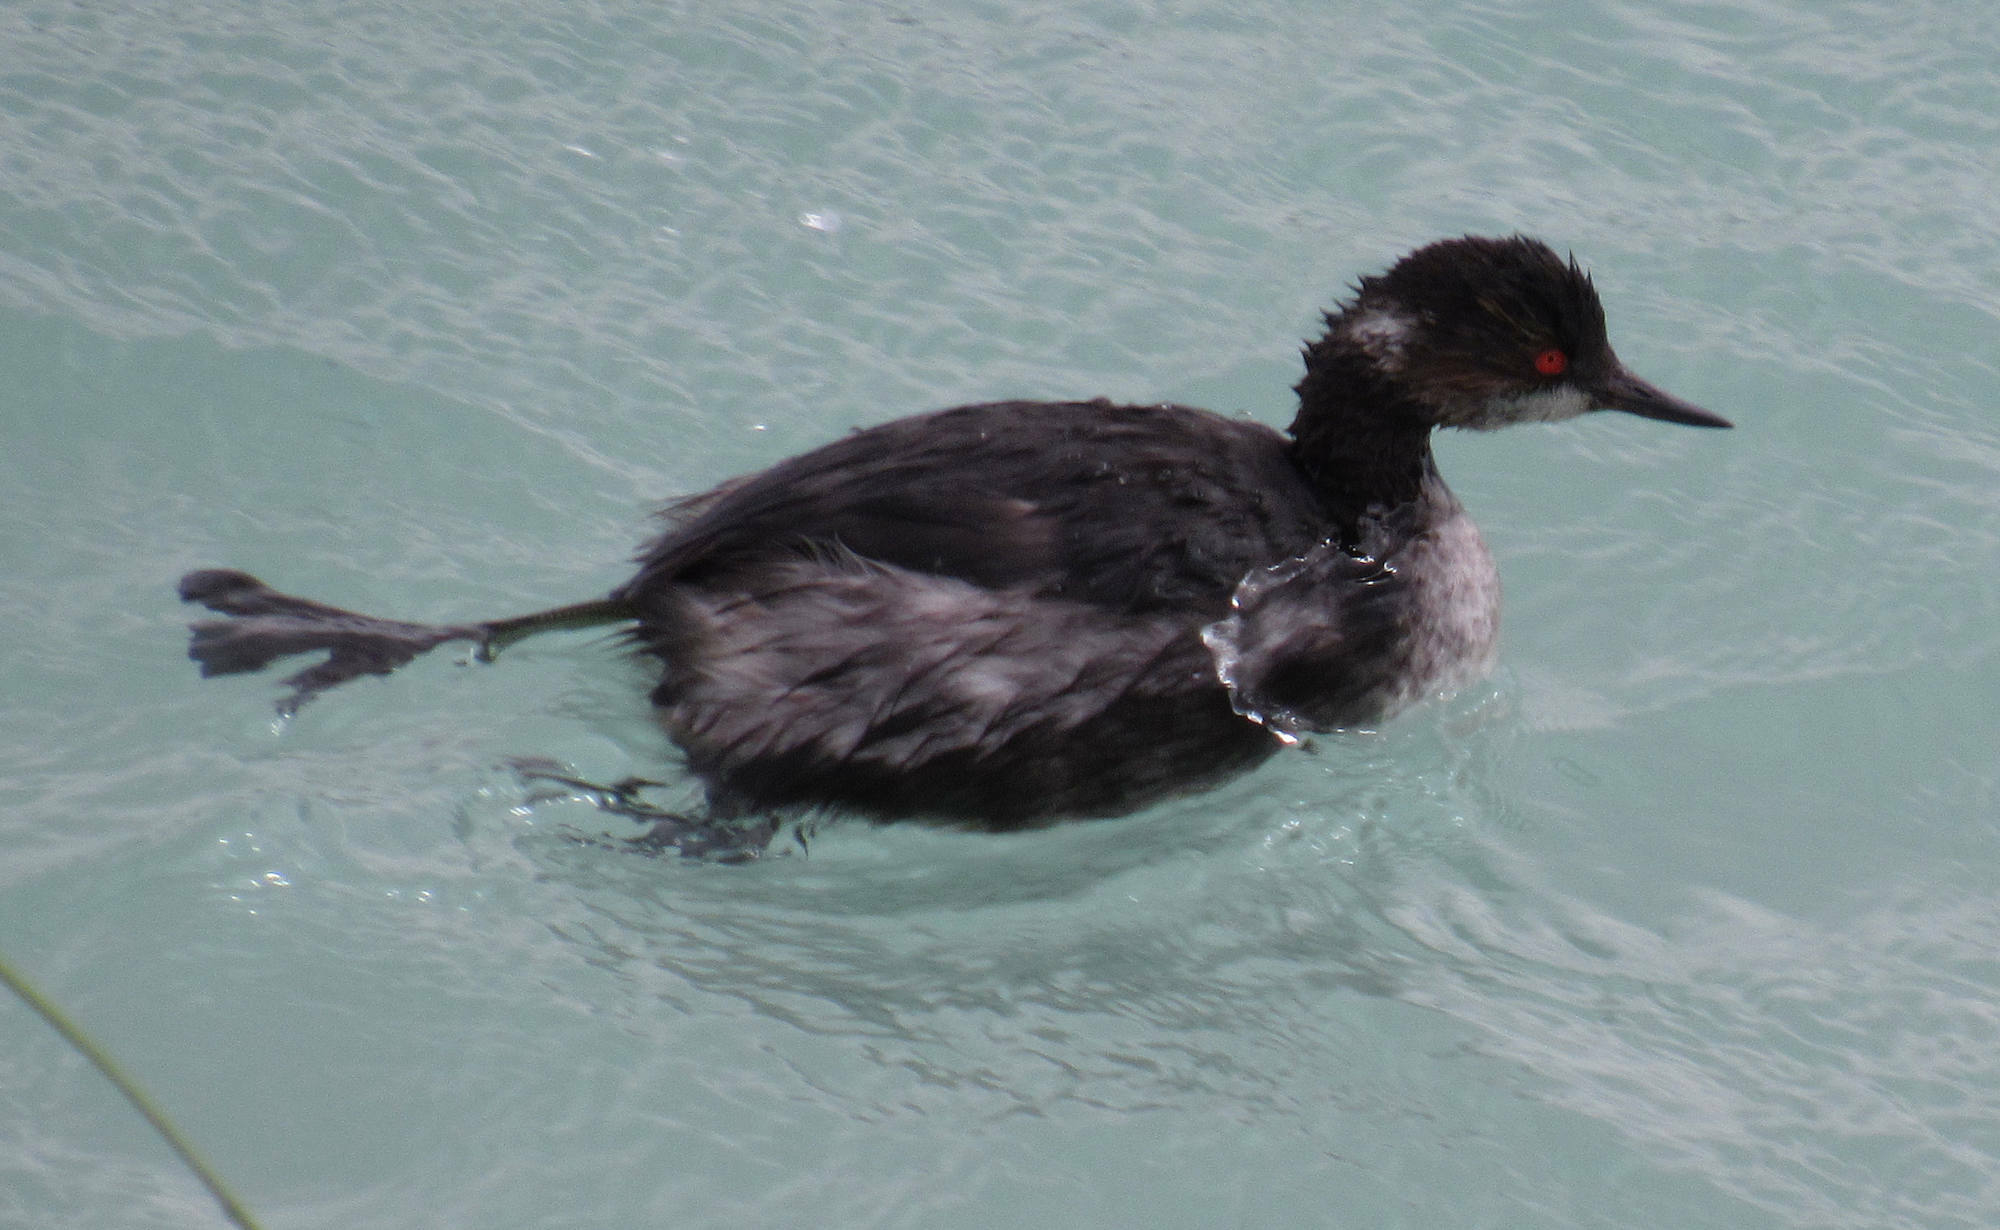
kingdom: Animalia
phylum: Chordata
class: Aves
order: Podicipediformes
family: Podicipedidae
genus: Podiceps
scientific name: Podiceps nigricollis
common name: Black-necked grebe
